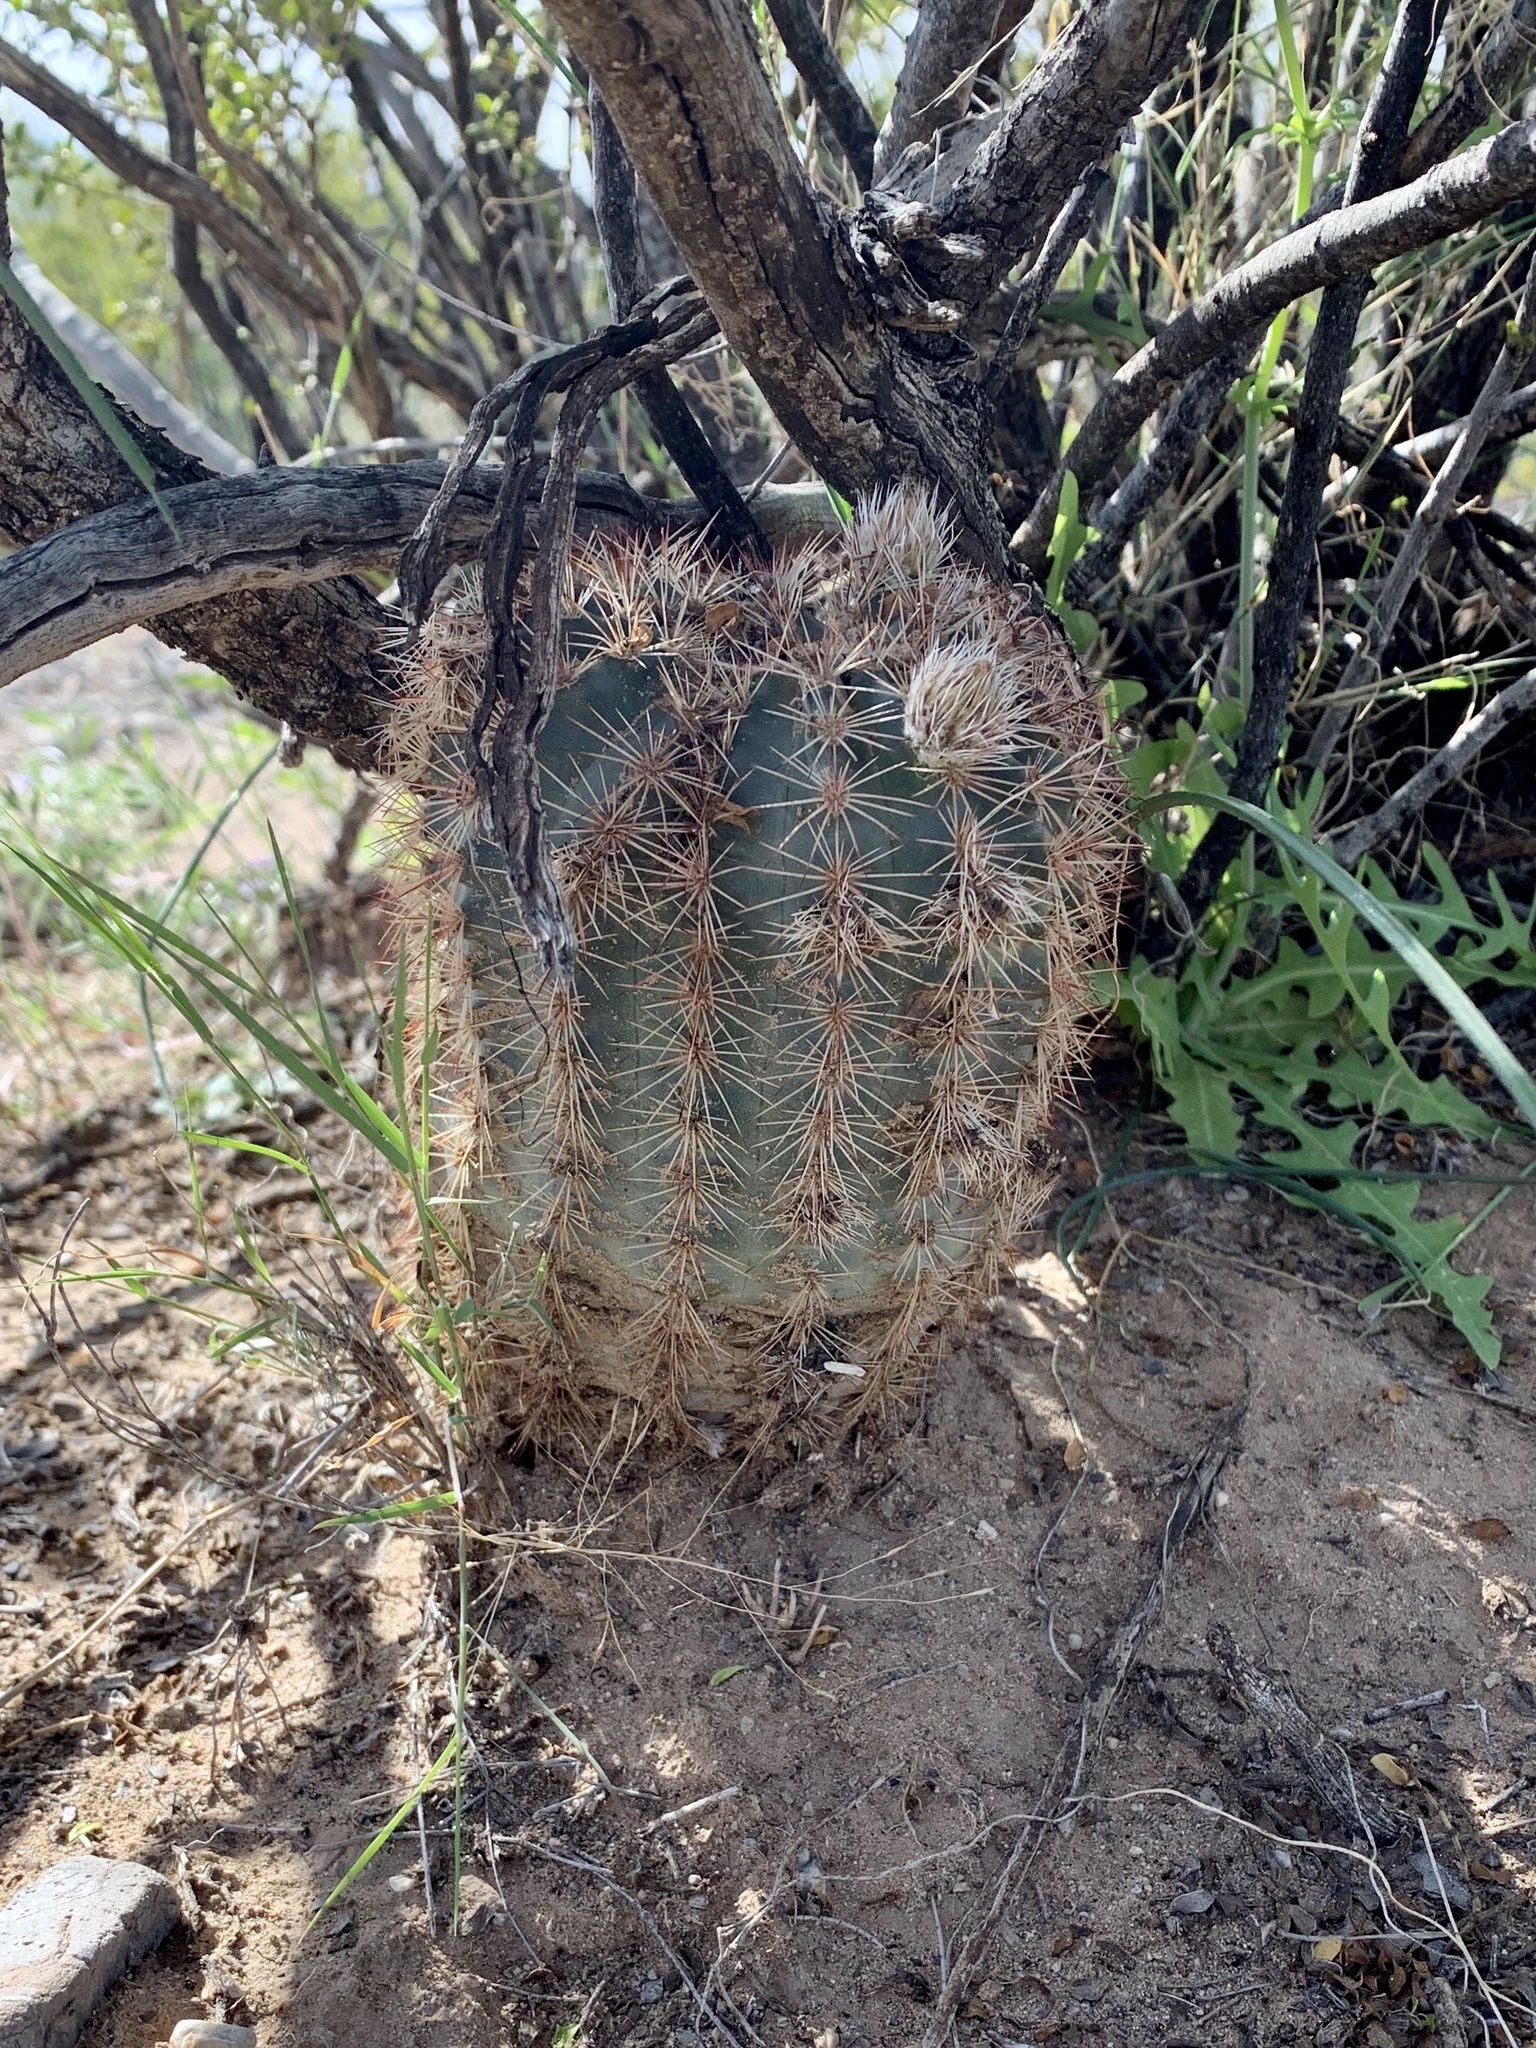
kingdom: Plantae
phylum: Tracheophyta
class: Magnoliopsida
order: Caryophyllales
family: Cactaceae
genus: Echinocereus
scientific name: Echinocereus dasyacanthus
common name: Spiny hedgehog cactus
